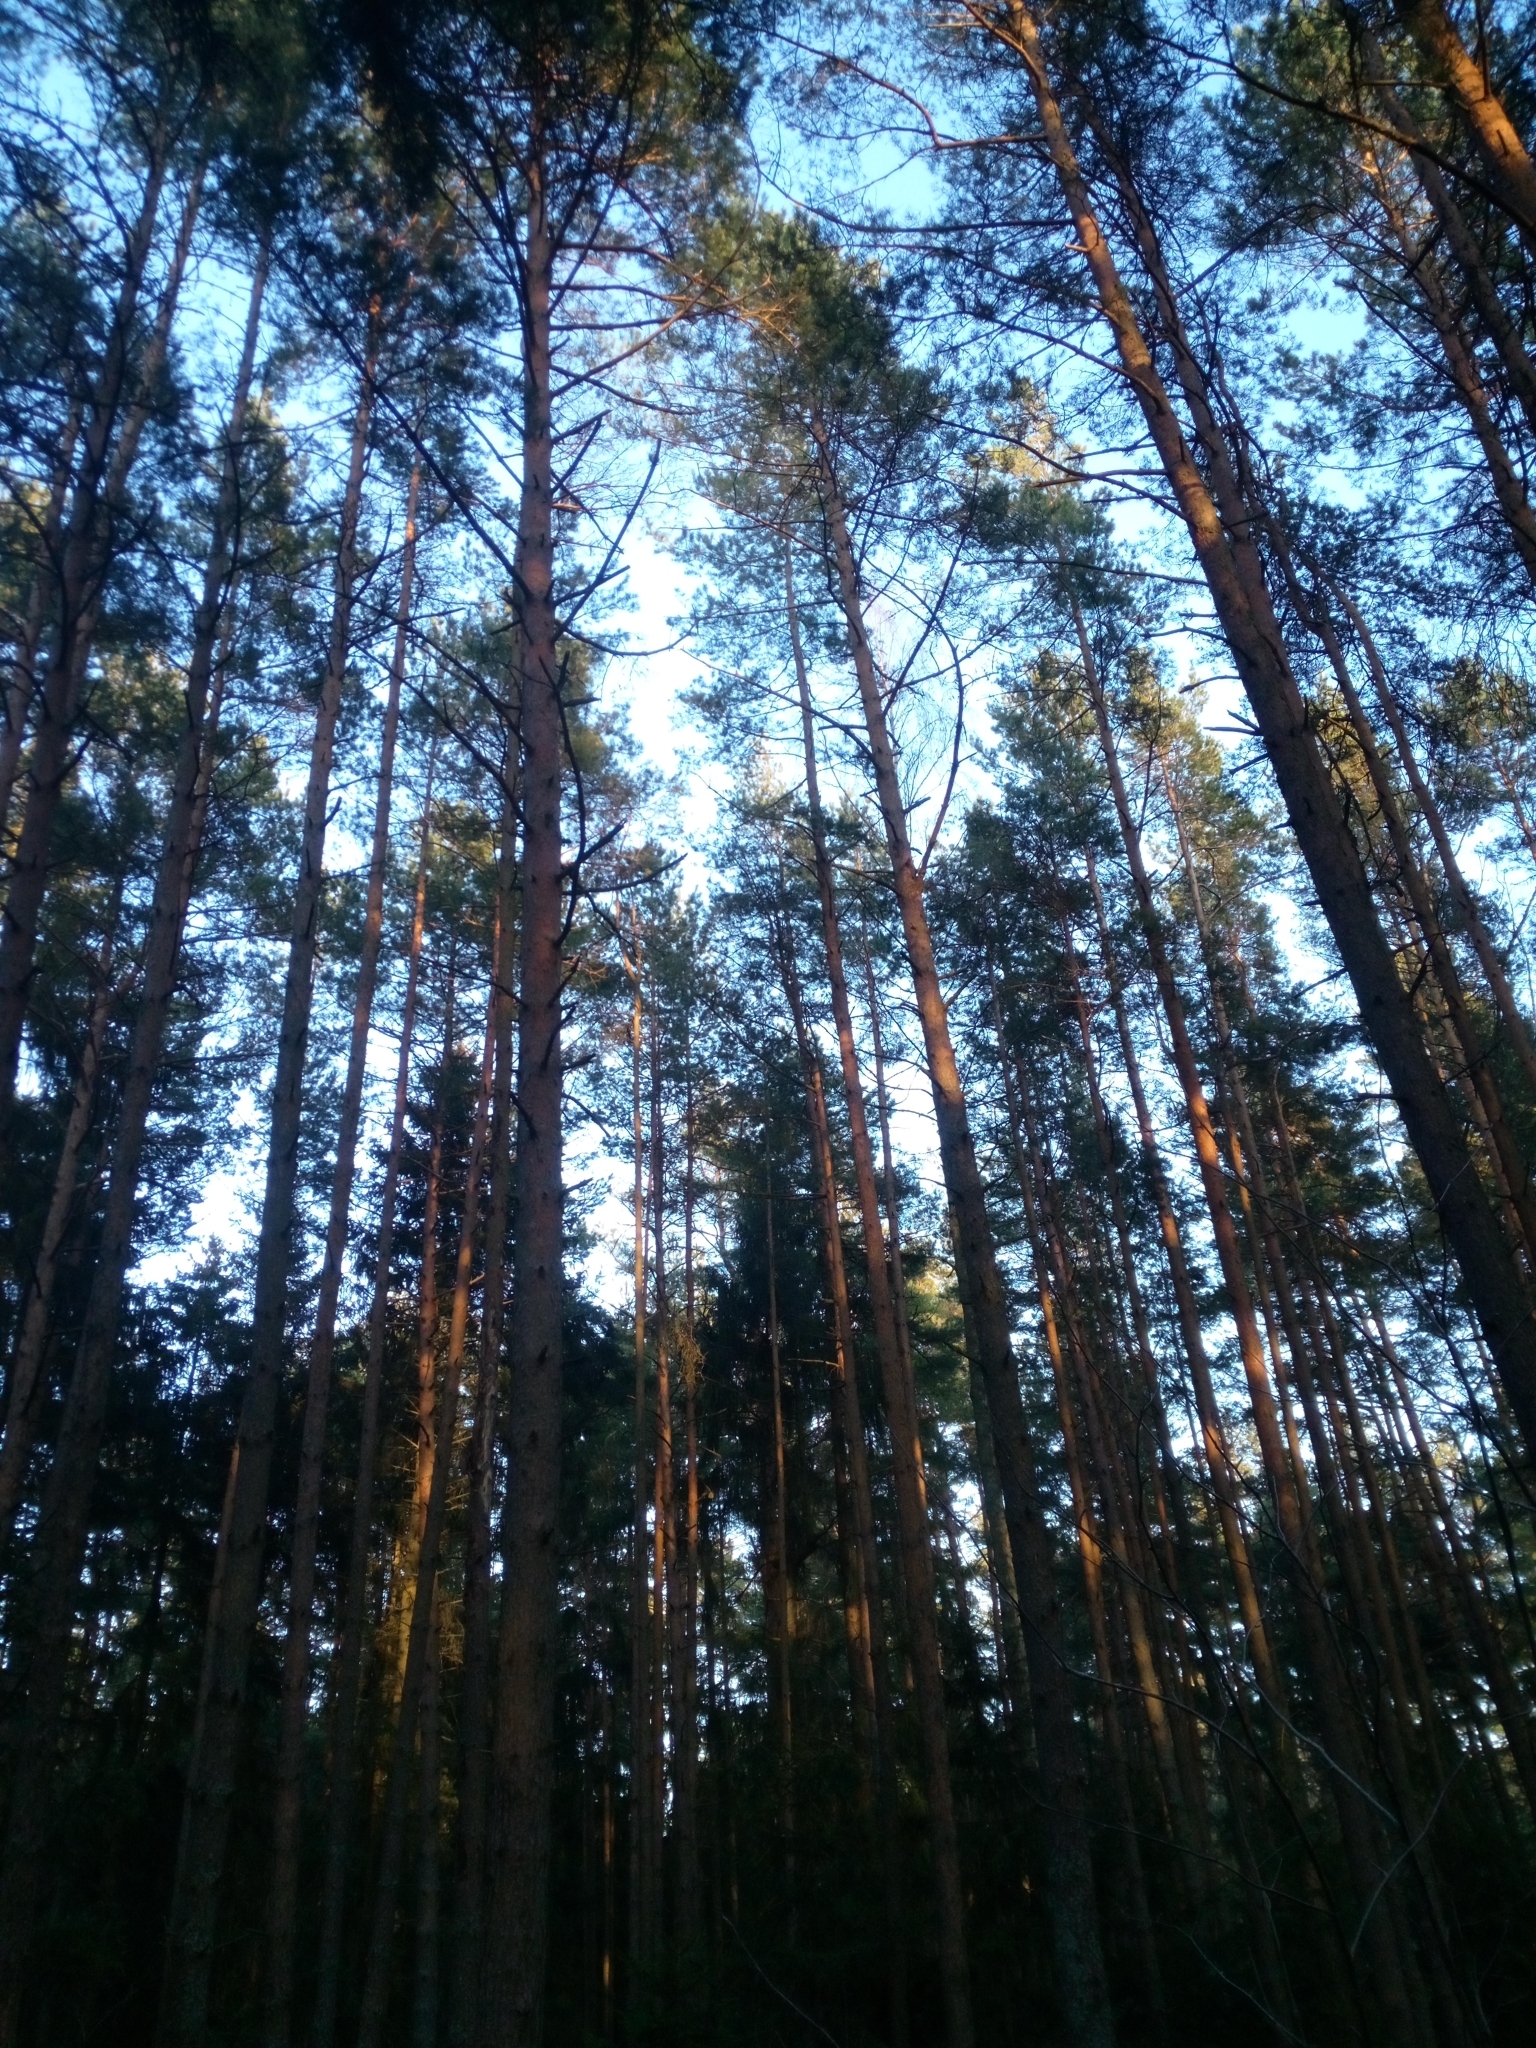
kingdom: Plantae
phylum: Tracheophyta
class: Pinopsida
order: Pinales
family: Pinaceae
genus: Pinus
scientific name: Pinus sylvestris
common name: Scots pine
